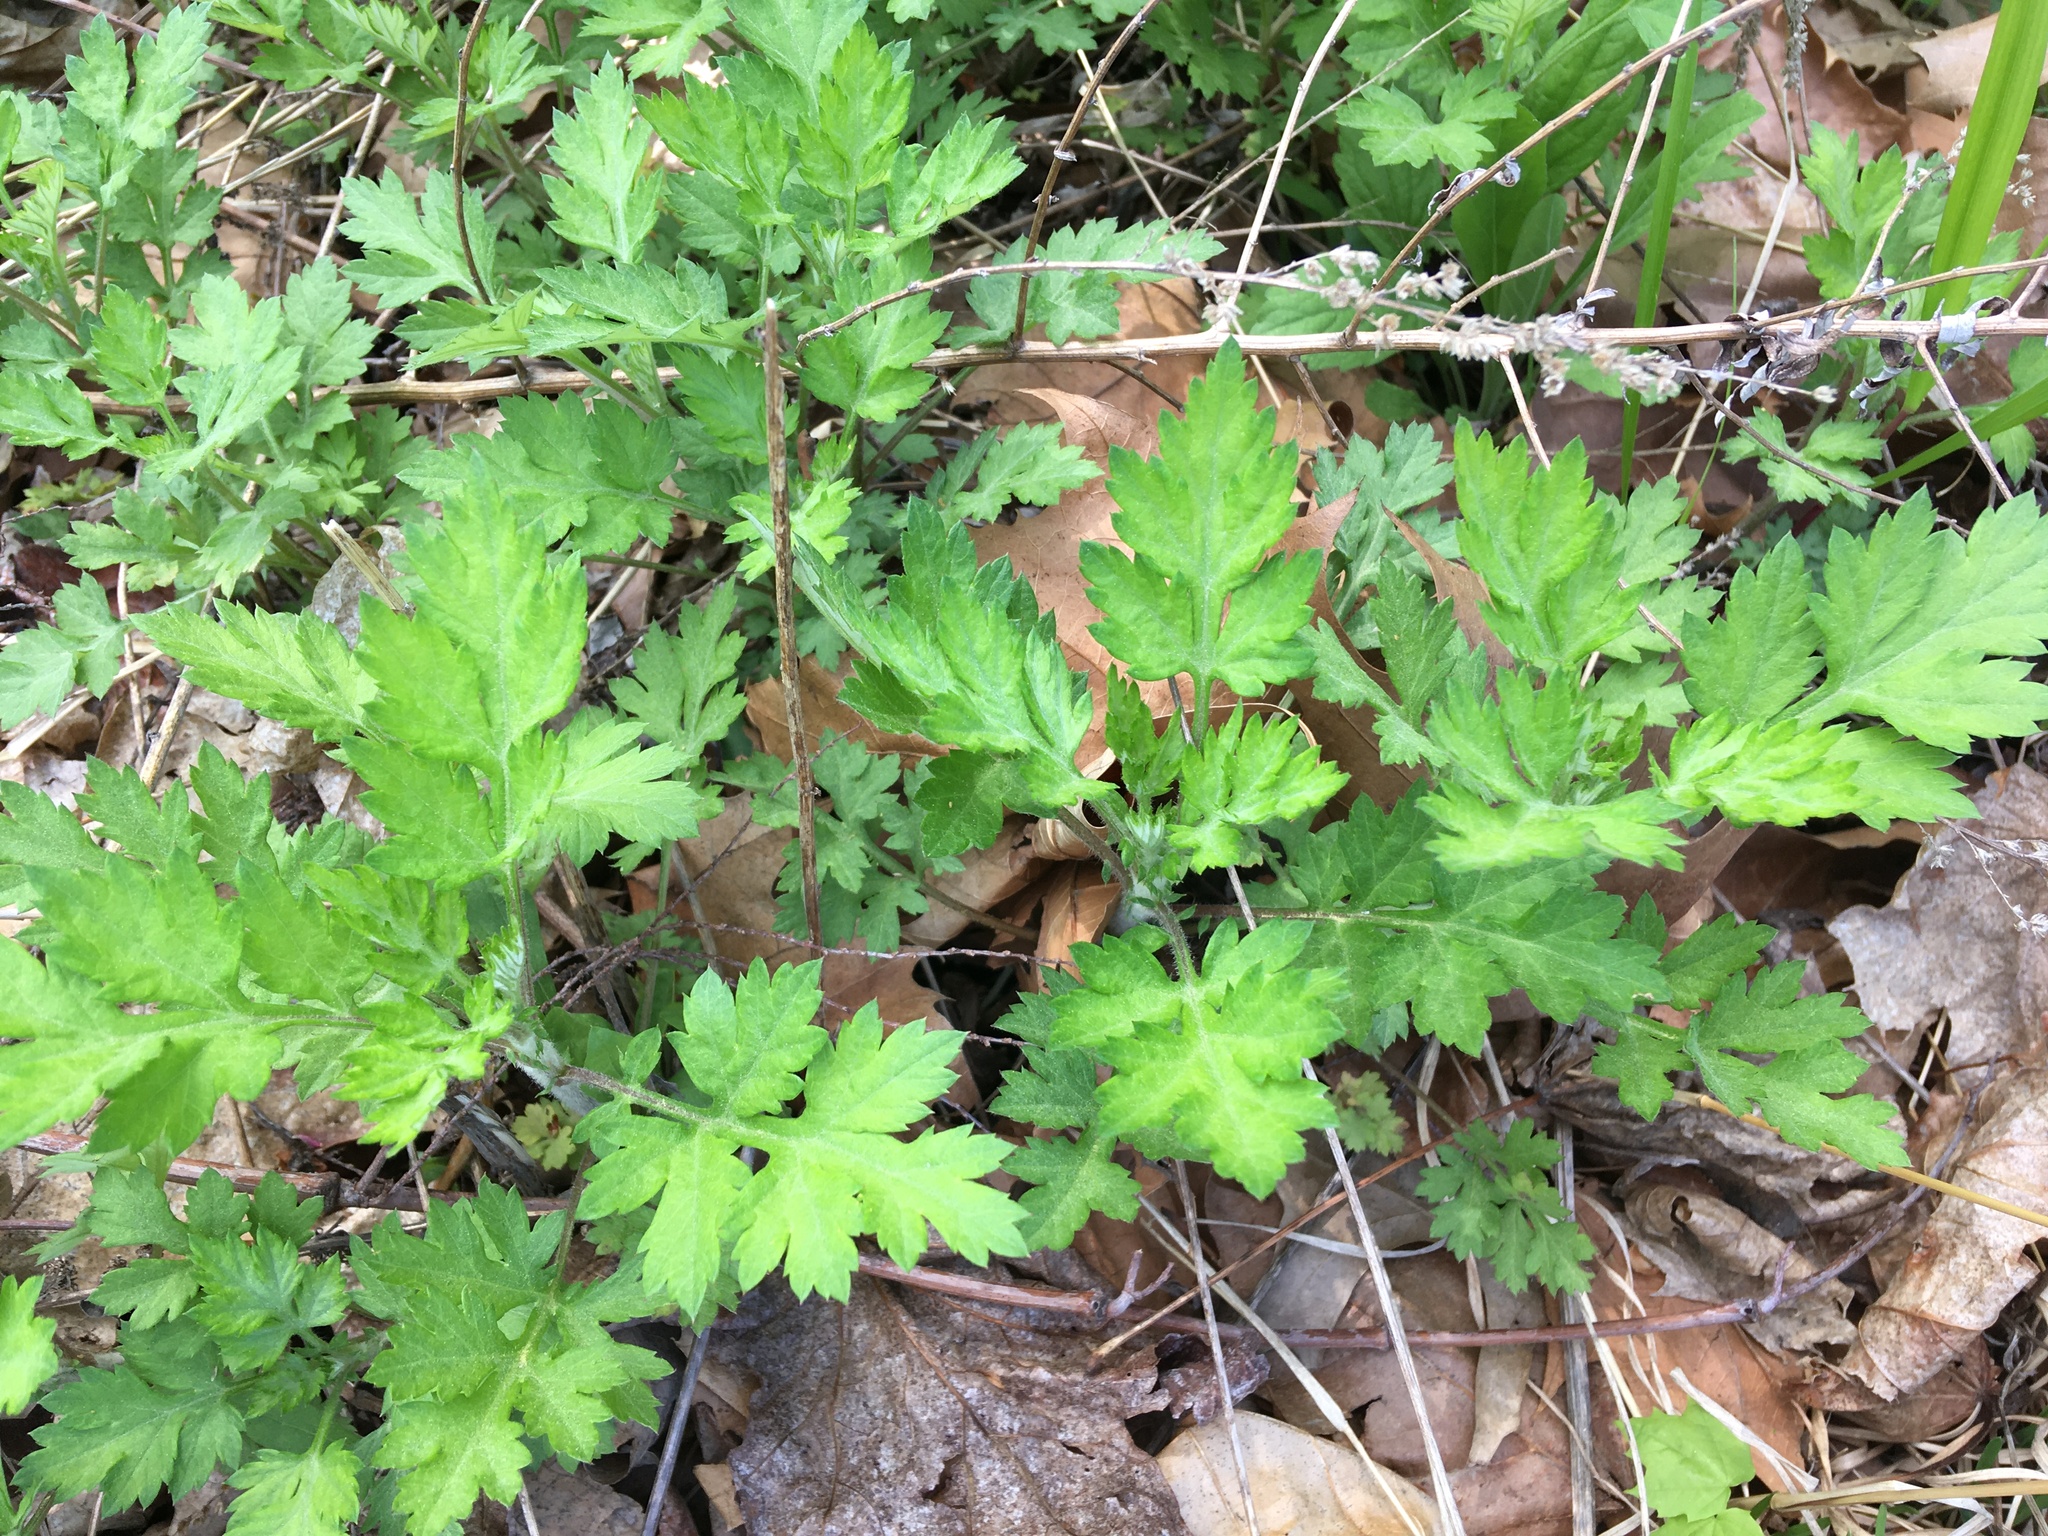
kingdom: Plantae
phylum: Tracheophyta
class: Magnoliopsida
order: Asterales
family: Asteraceae
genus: Artemisia
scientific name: Artemisia vulgaris
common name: Mugwort
